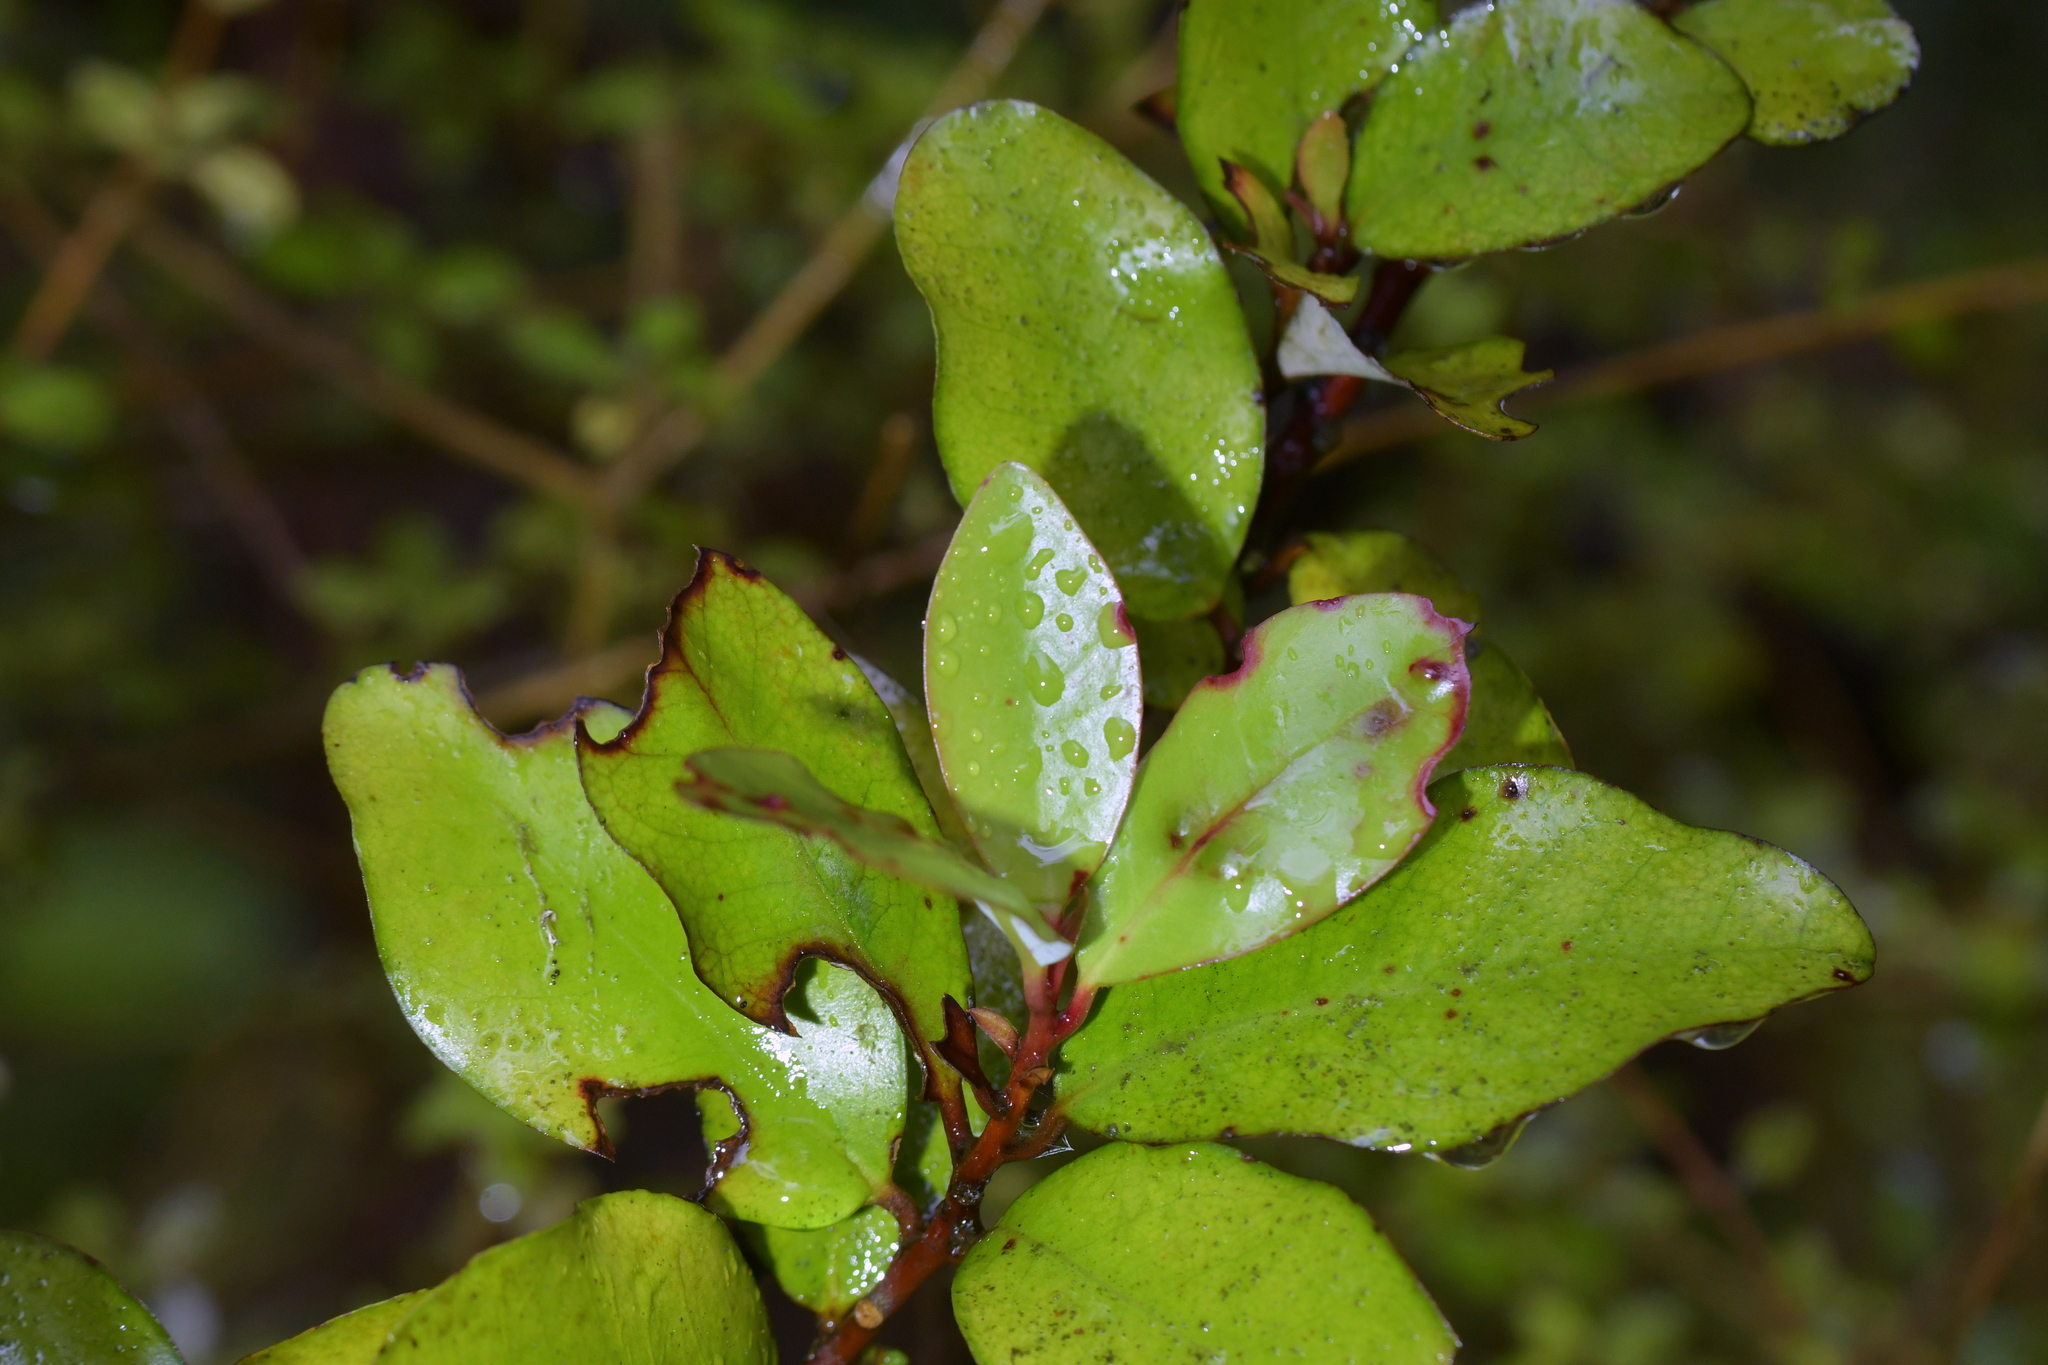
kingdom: Plantae
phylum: Tracheophyta
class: Magnoliopsida
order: Canellales
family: Winteraceae
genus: Pseudowintera
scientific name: Pseudowintera colorata
